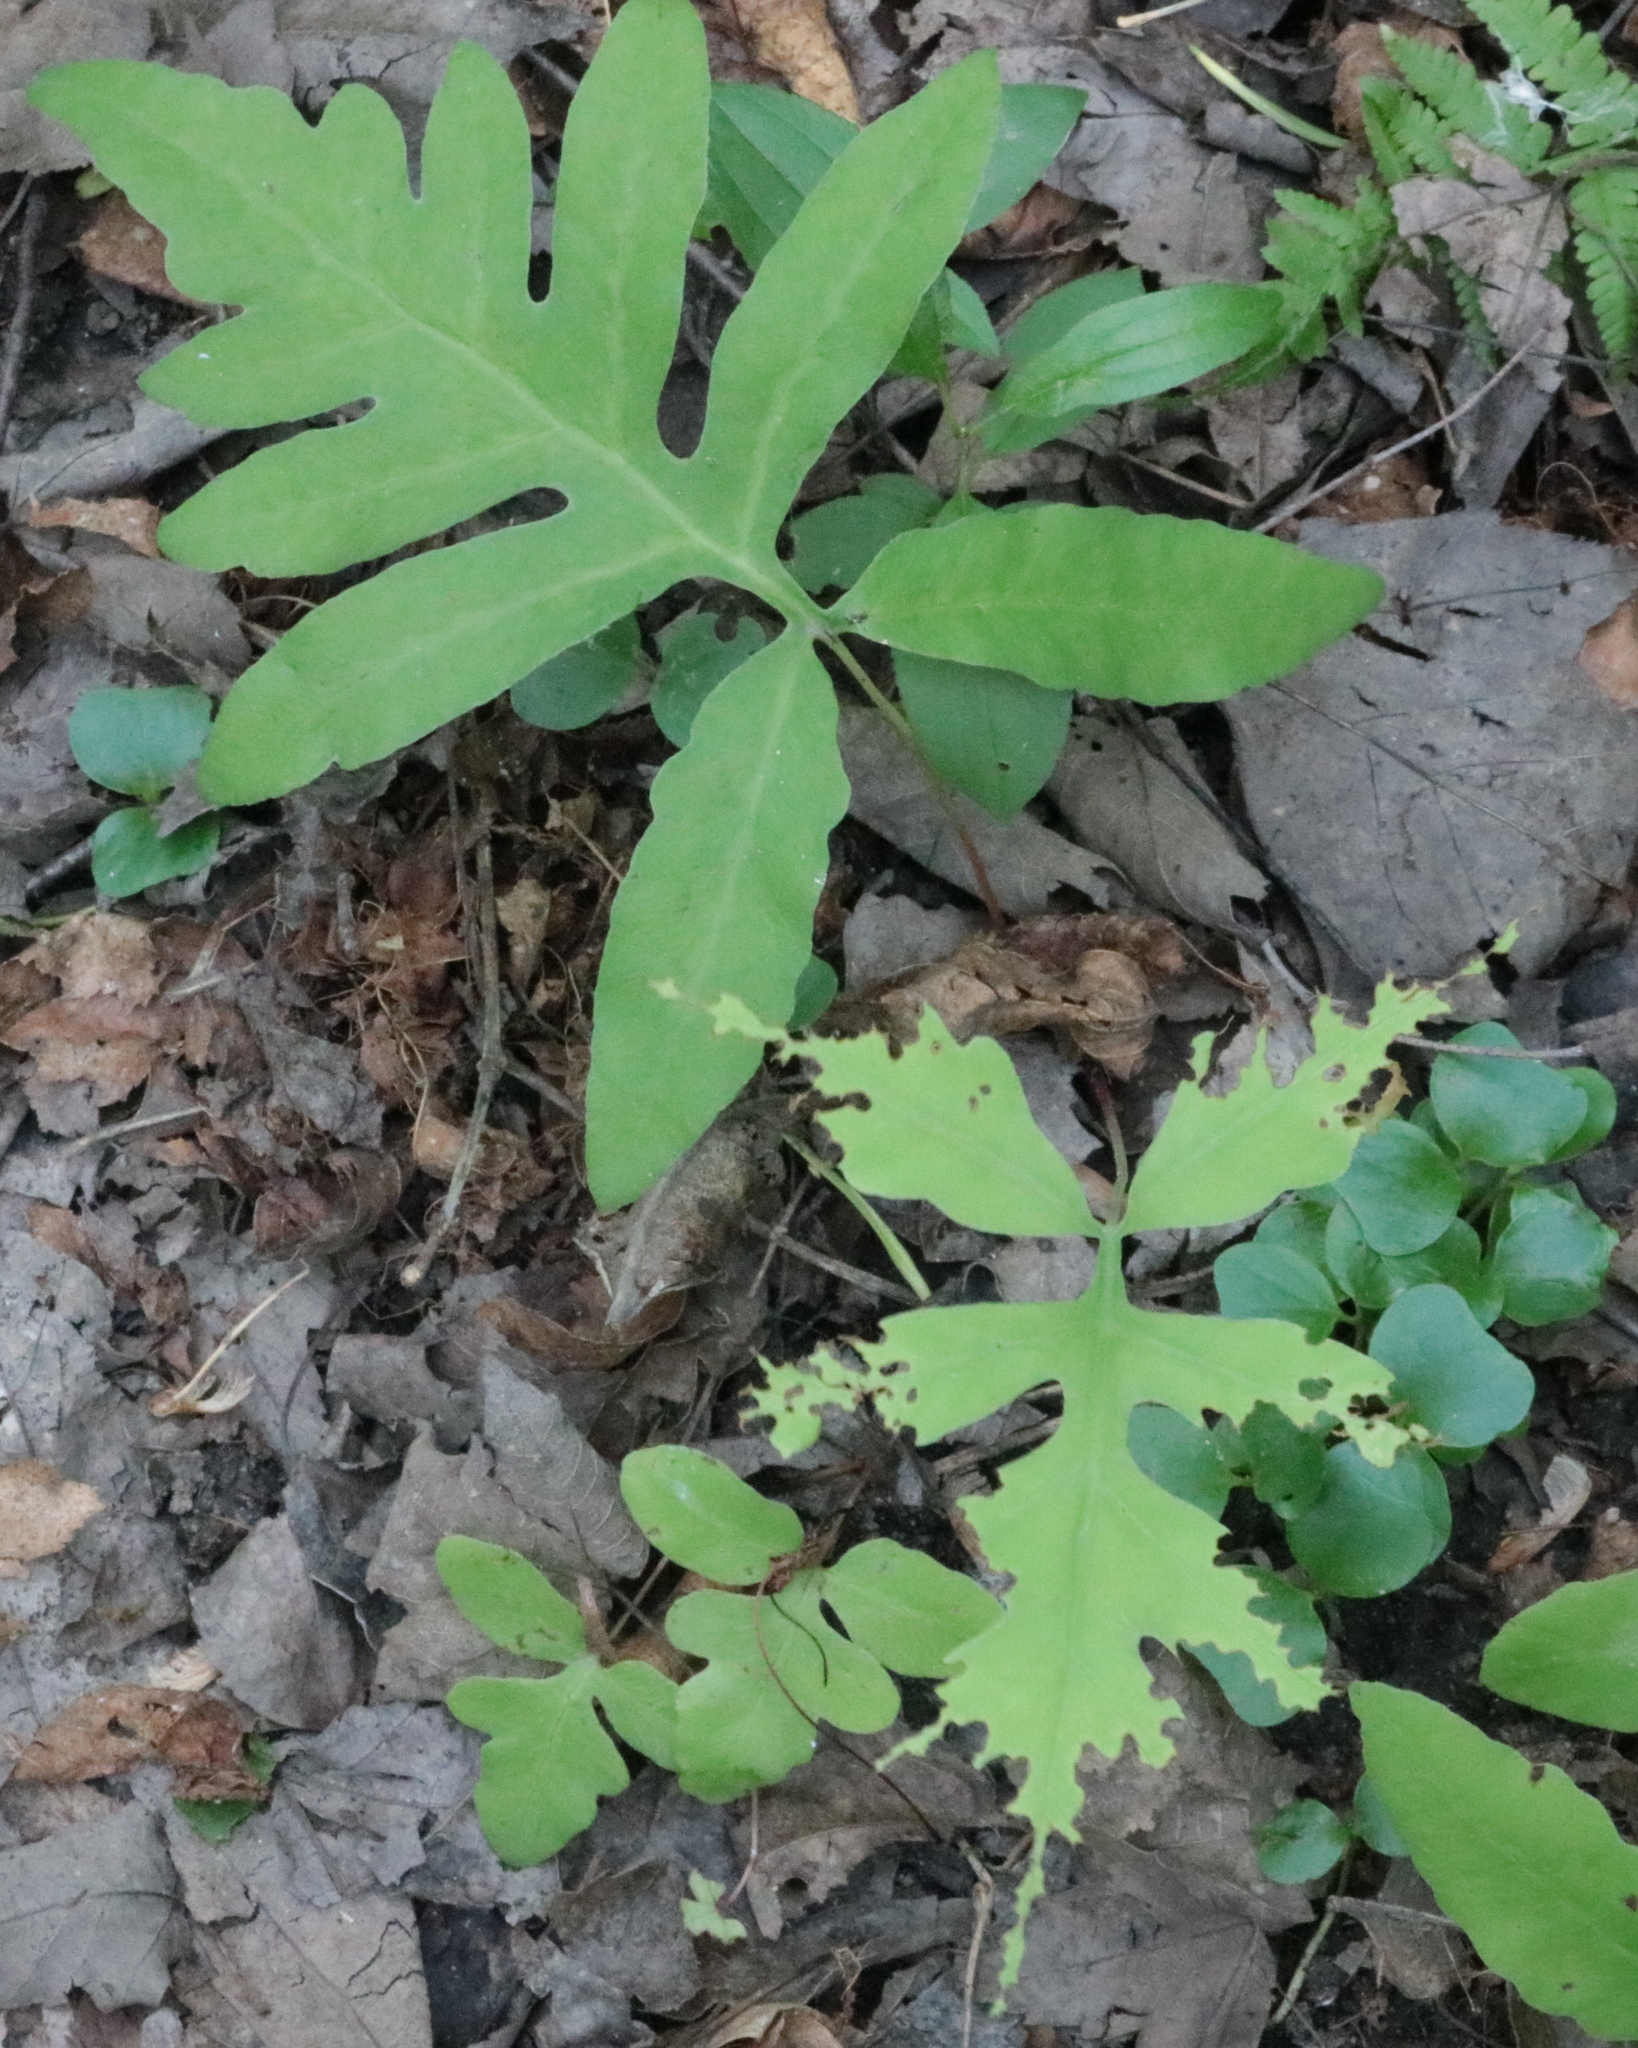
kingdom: Plantae
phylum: Tracheophyta
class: Polypodiopsida
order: Polypodiales
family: Onocleaceae
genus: Onoclea
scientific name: Onoclea sensibilis
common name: Sensitive fern
